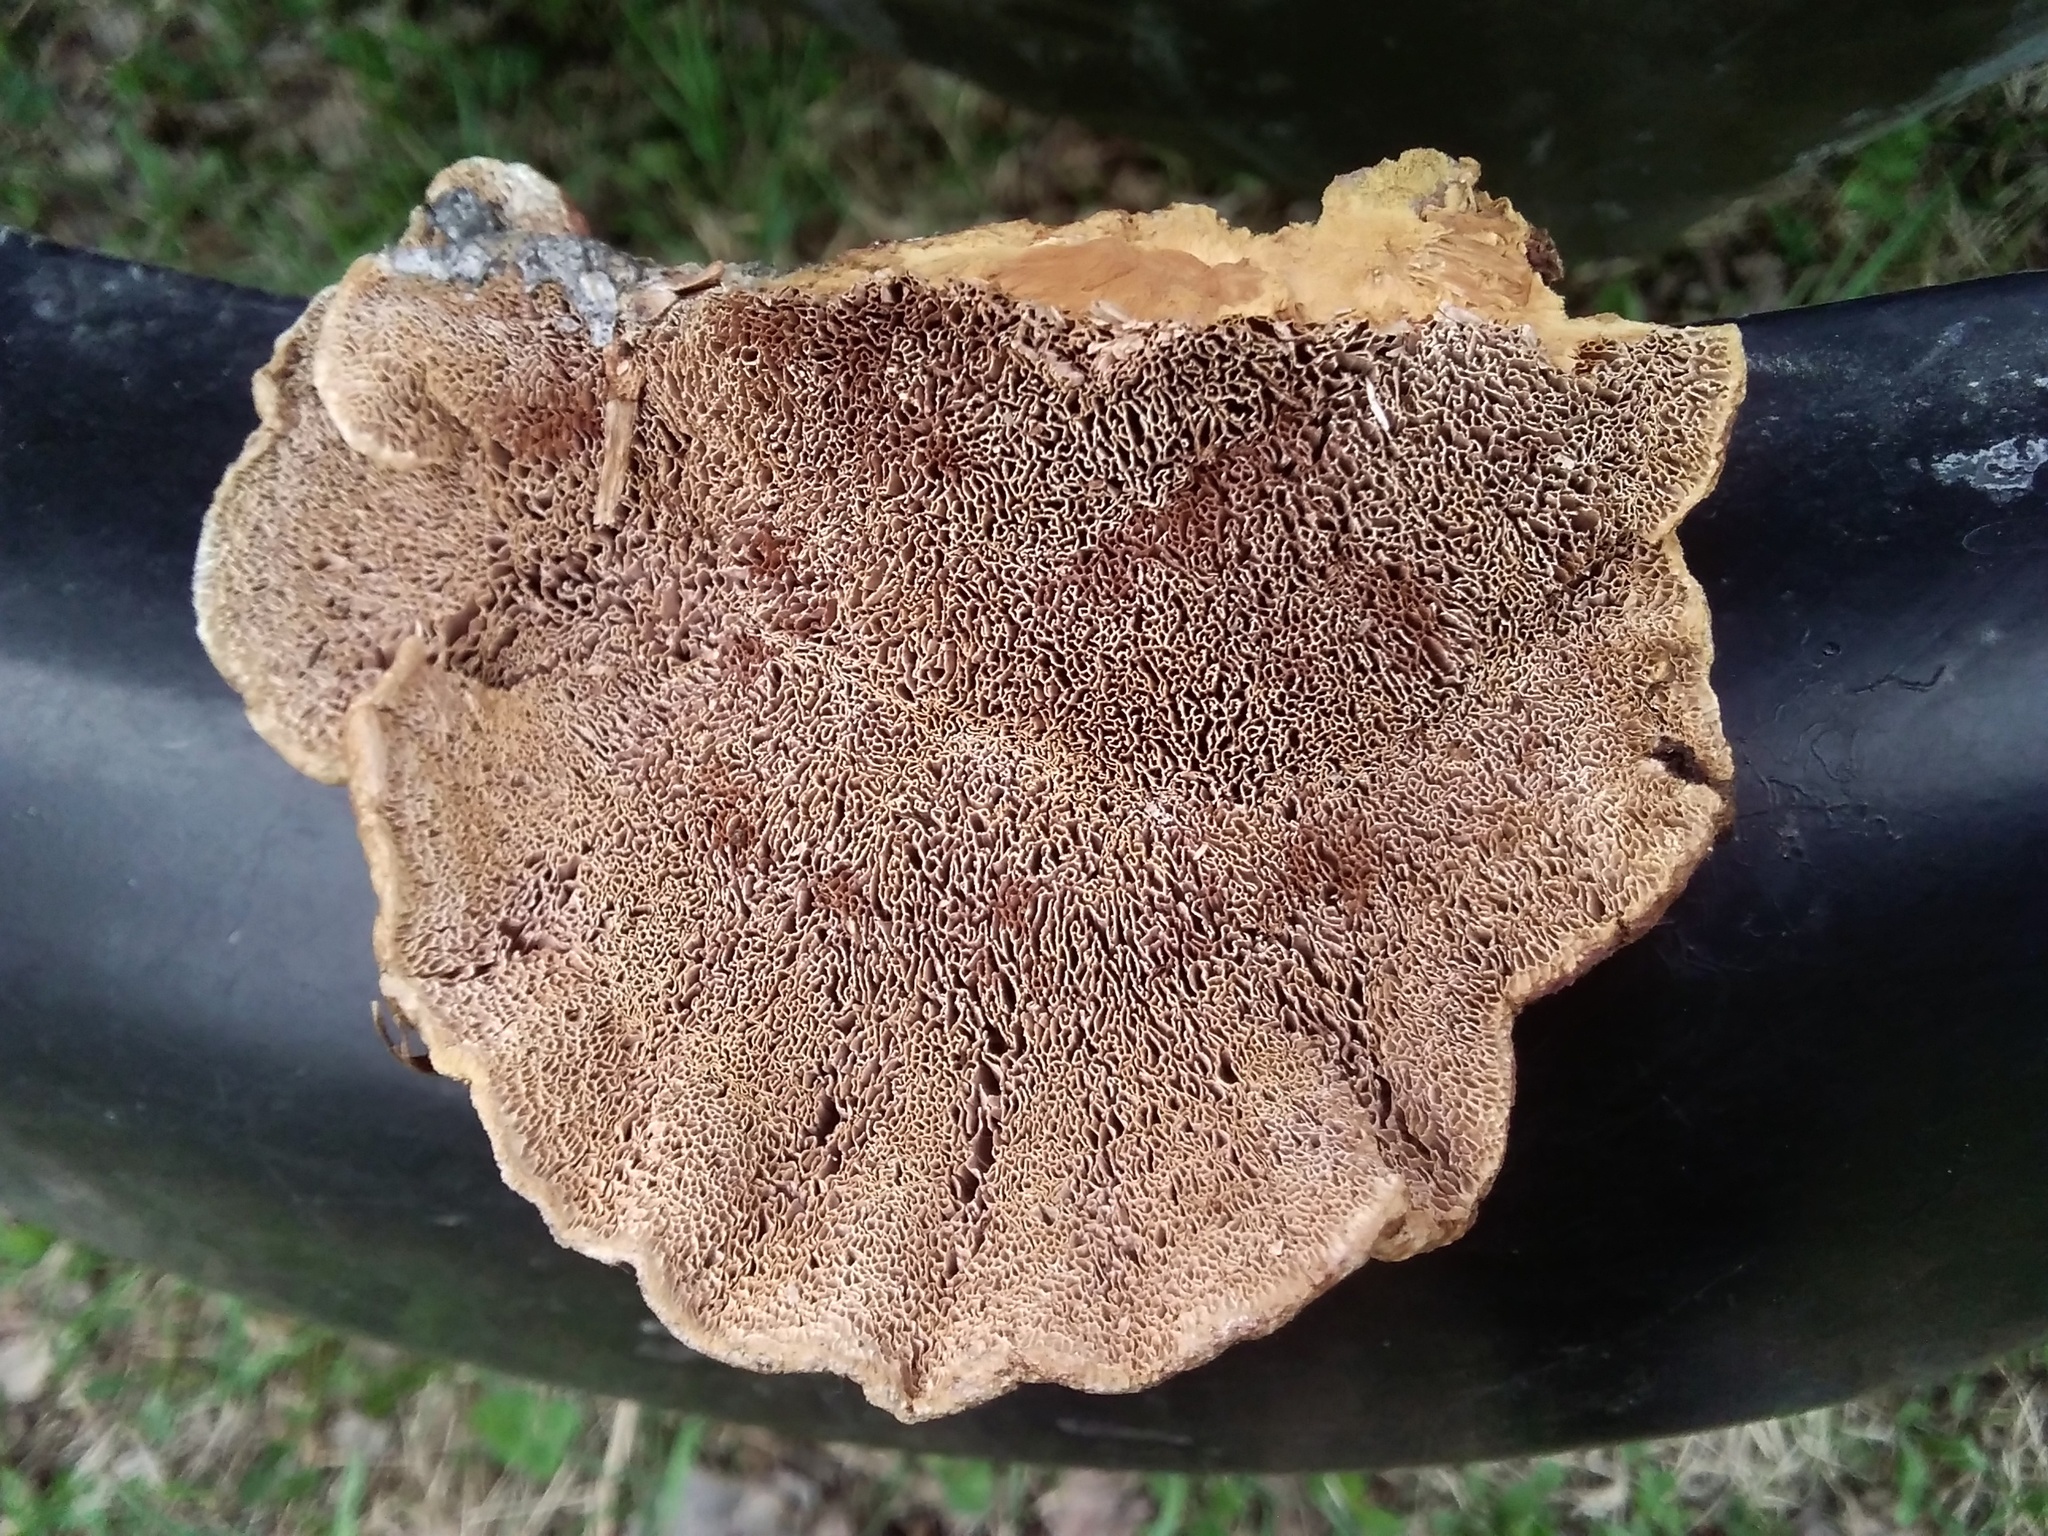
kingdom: Fungi
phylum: Basidiomycota
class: Agaricomycetes
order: Polyporales
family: Phanerochaetaceae
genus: Hapalopilus
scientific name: Hapalopilus rutilans
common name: Tender nesting polypore
